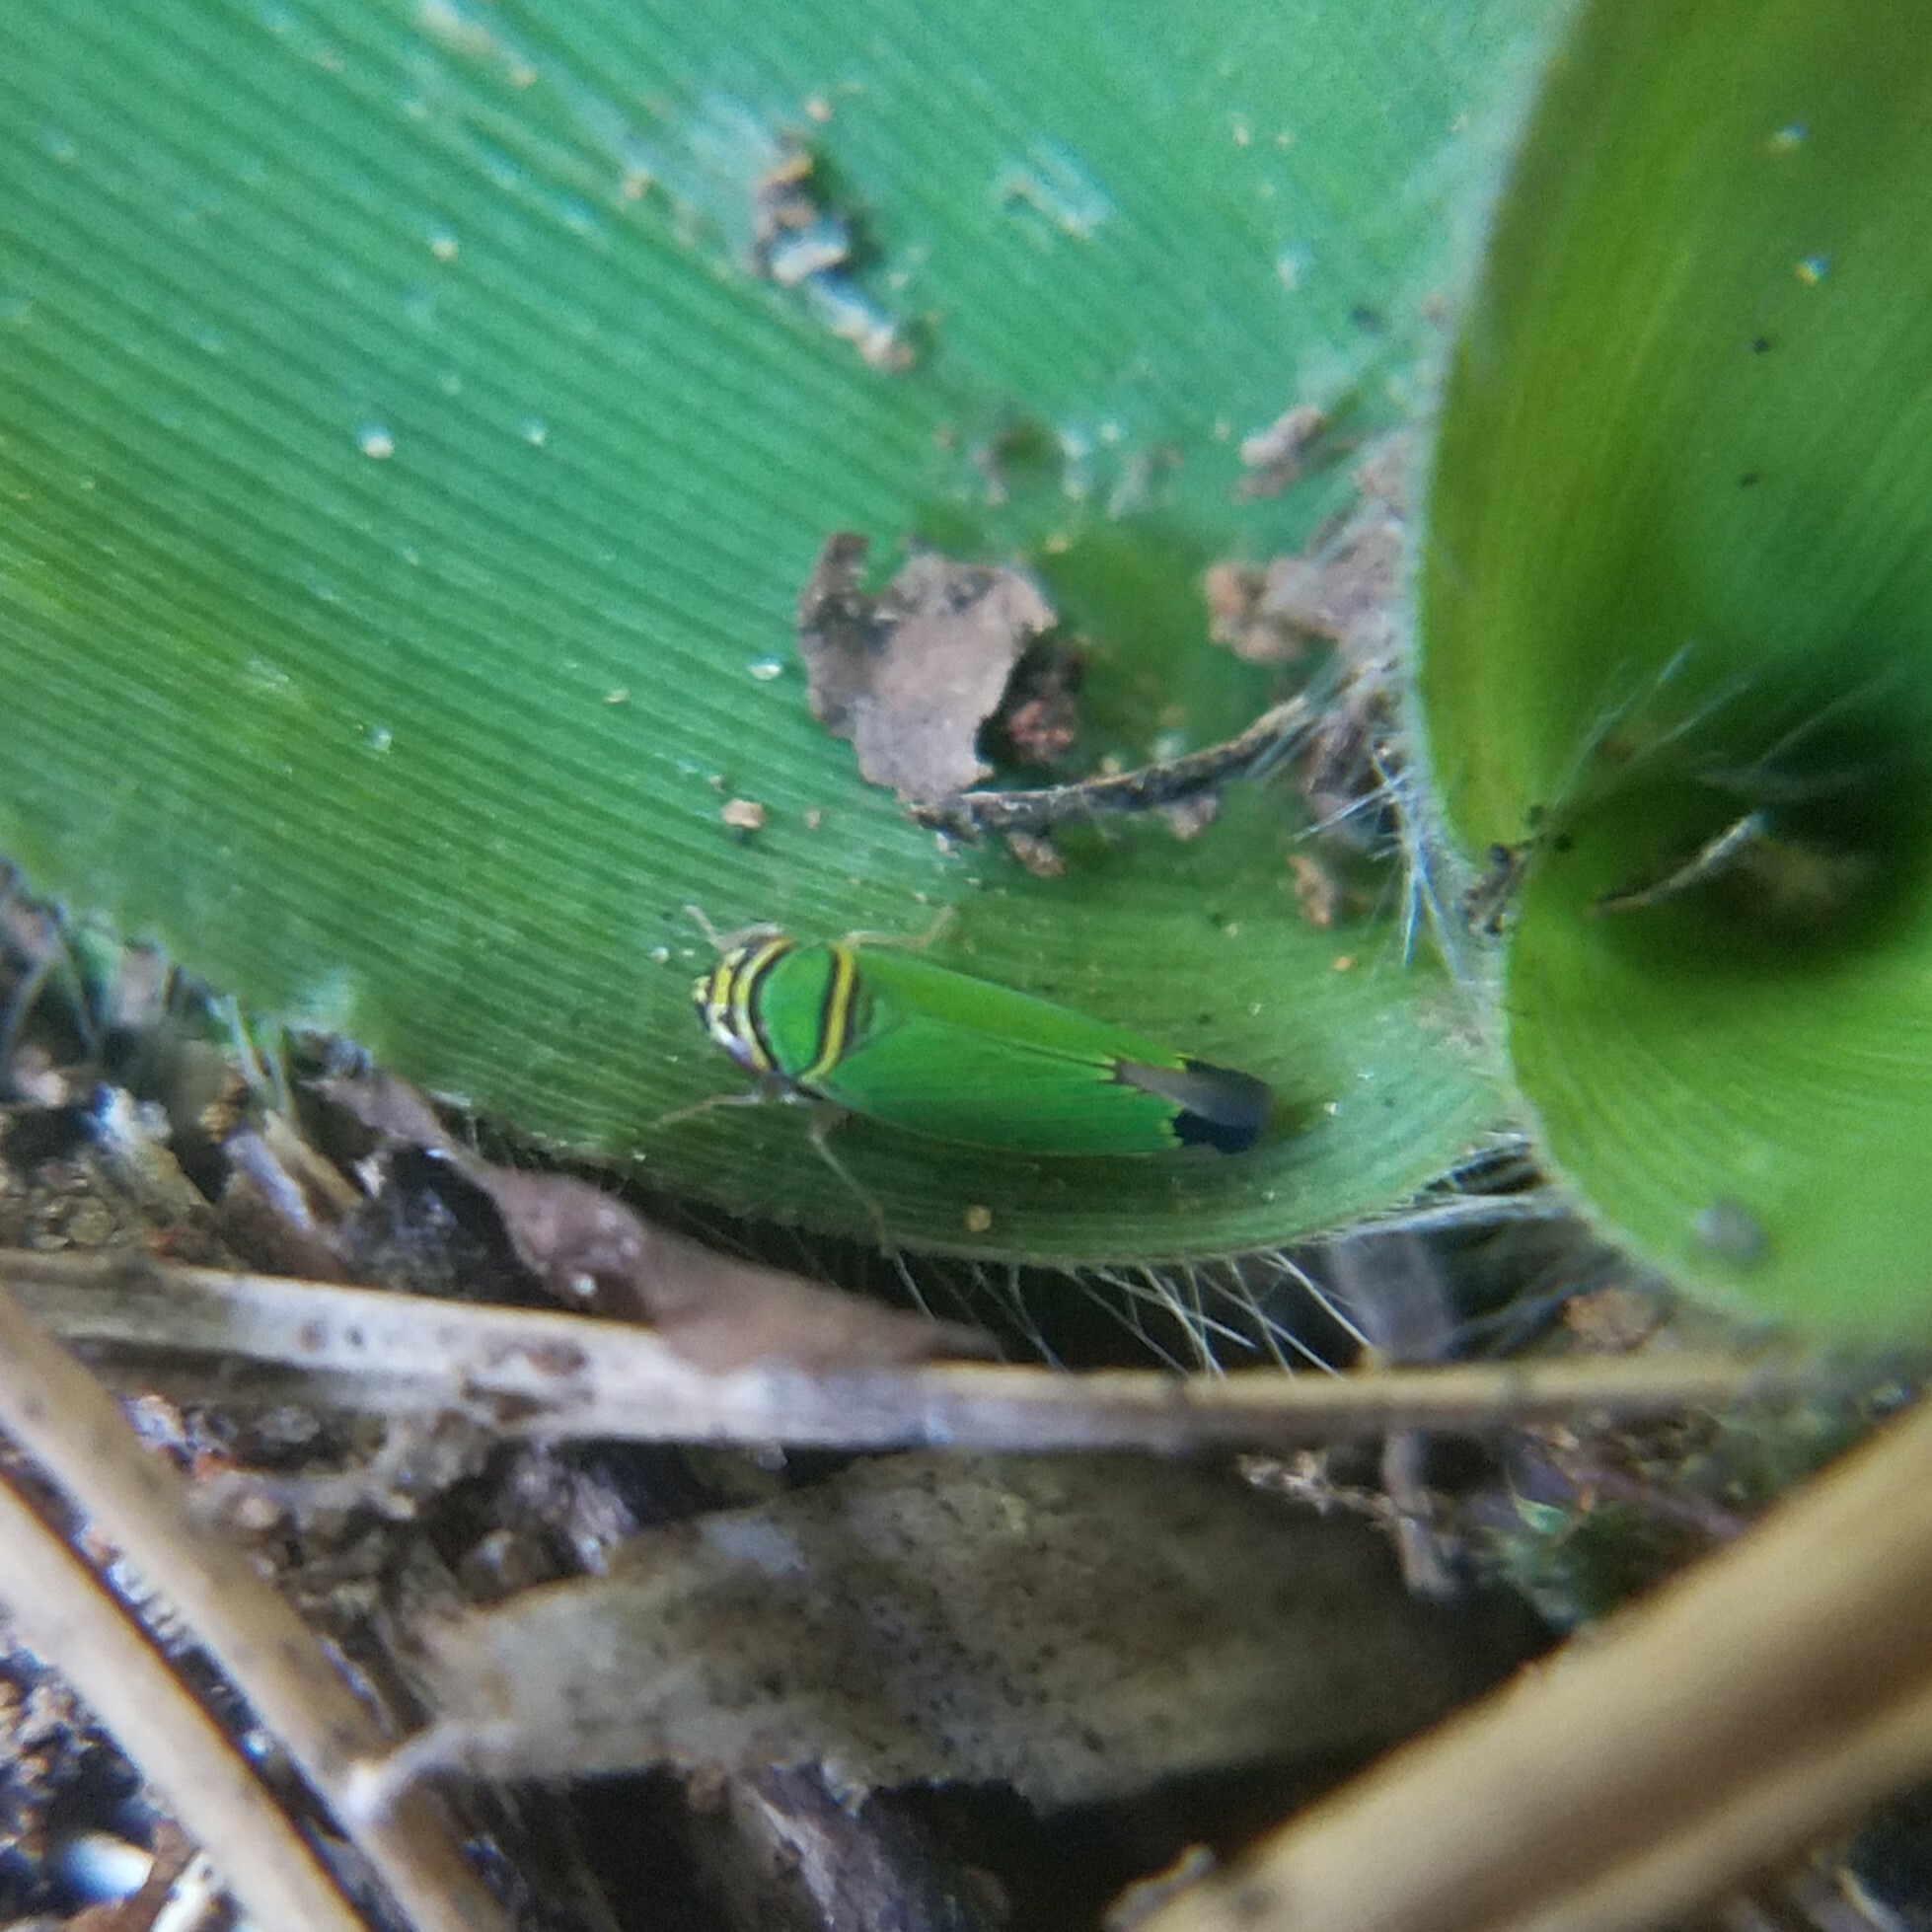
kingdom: Animalia
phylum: Arthropoda
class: Insecta
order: Hemiptera
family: Cicadellidae
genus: Tylozygus
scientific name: Tylozygus geometricus
